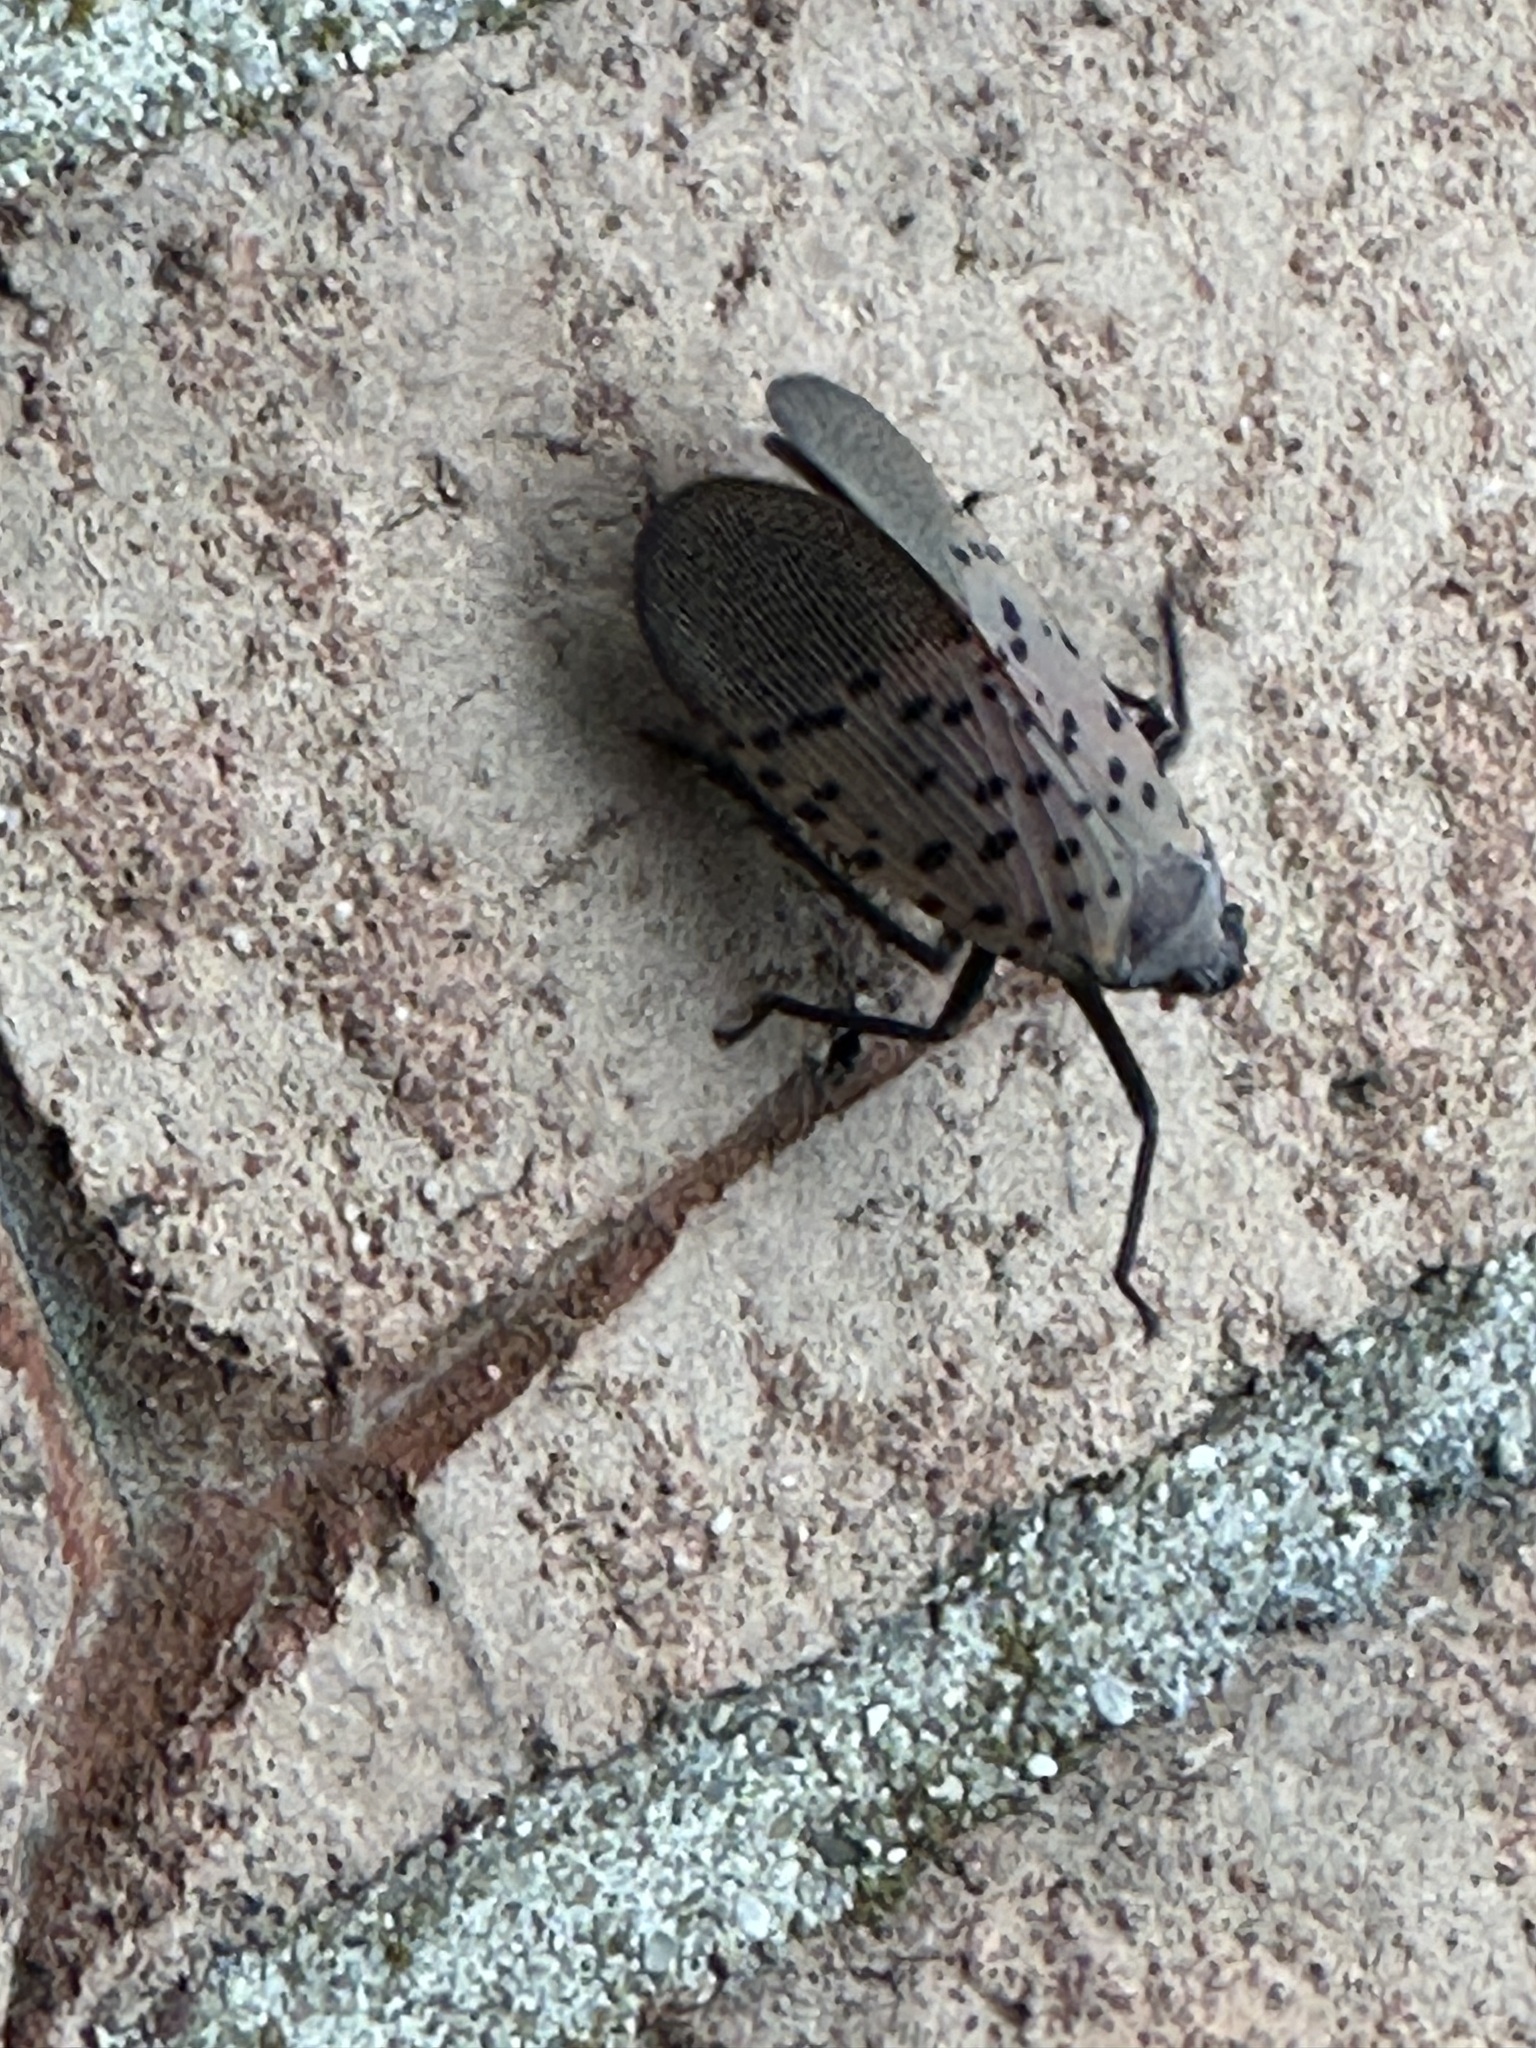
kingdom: Animalia
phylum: Arthropoda
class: Insecta
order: Hemiptera
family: Fulgoridae
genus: Lycorma
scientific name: Lycorma delicatula
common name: Spotted lanternfly
